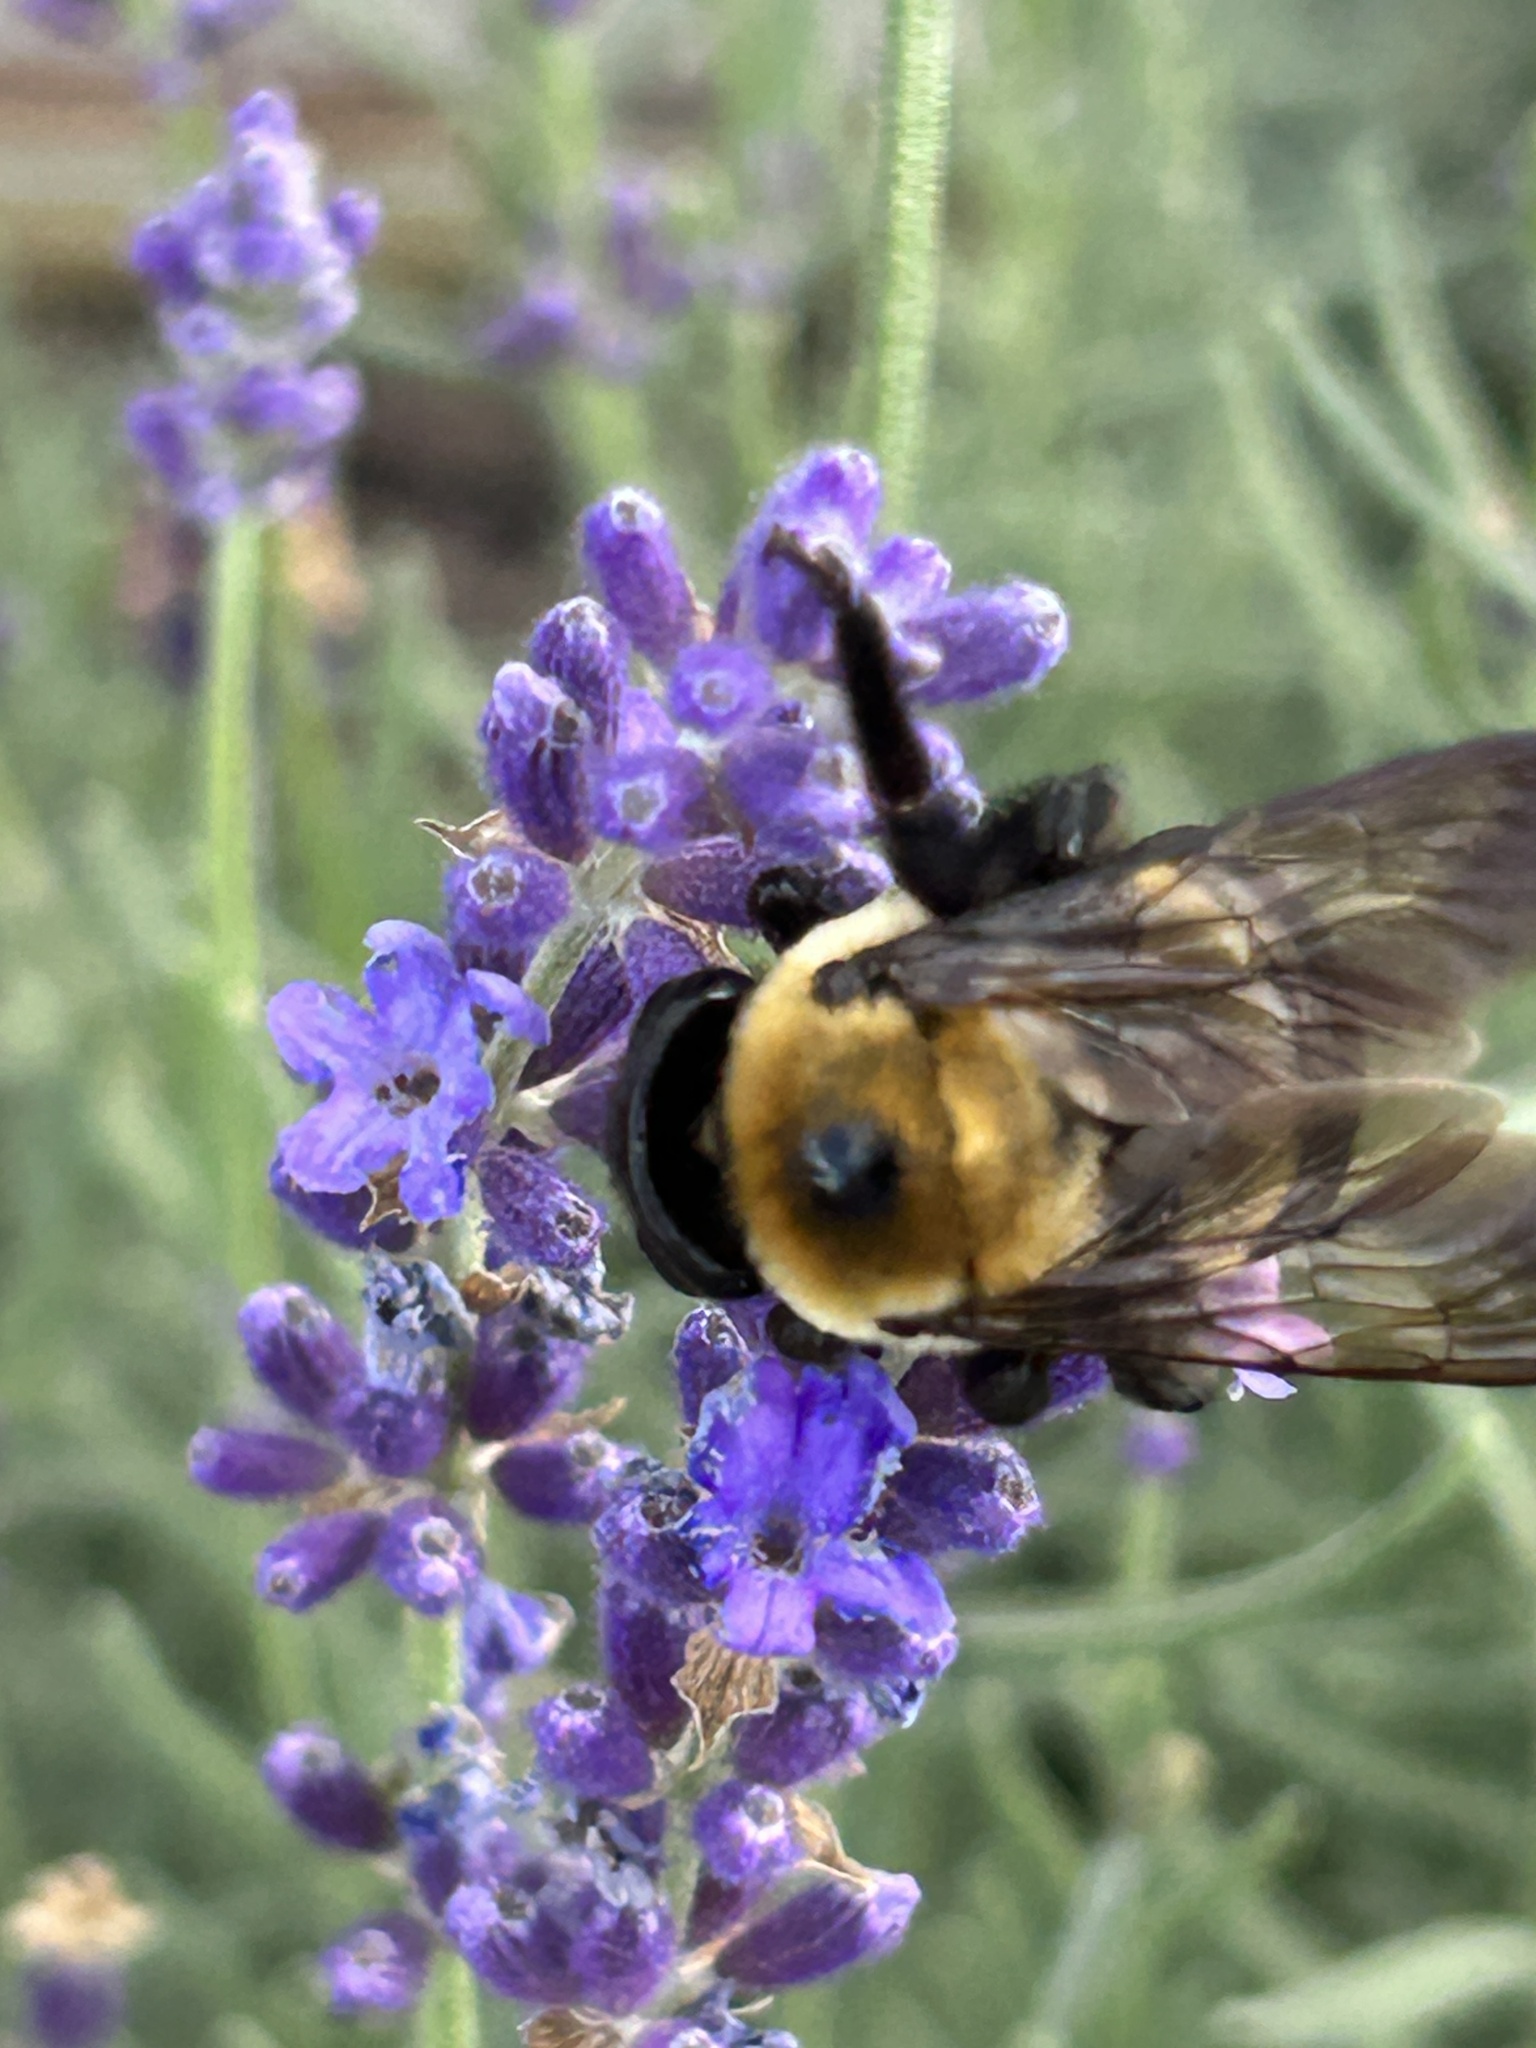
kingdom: Animalia
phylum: Arthropoda
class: Insecta
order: Hymenoptera
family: Apidae
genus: Xylocopa
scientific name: Xylocopa virginica
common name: Carpenter bee
